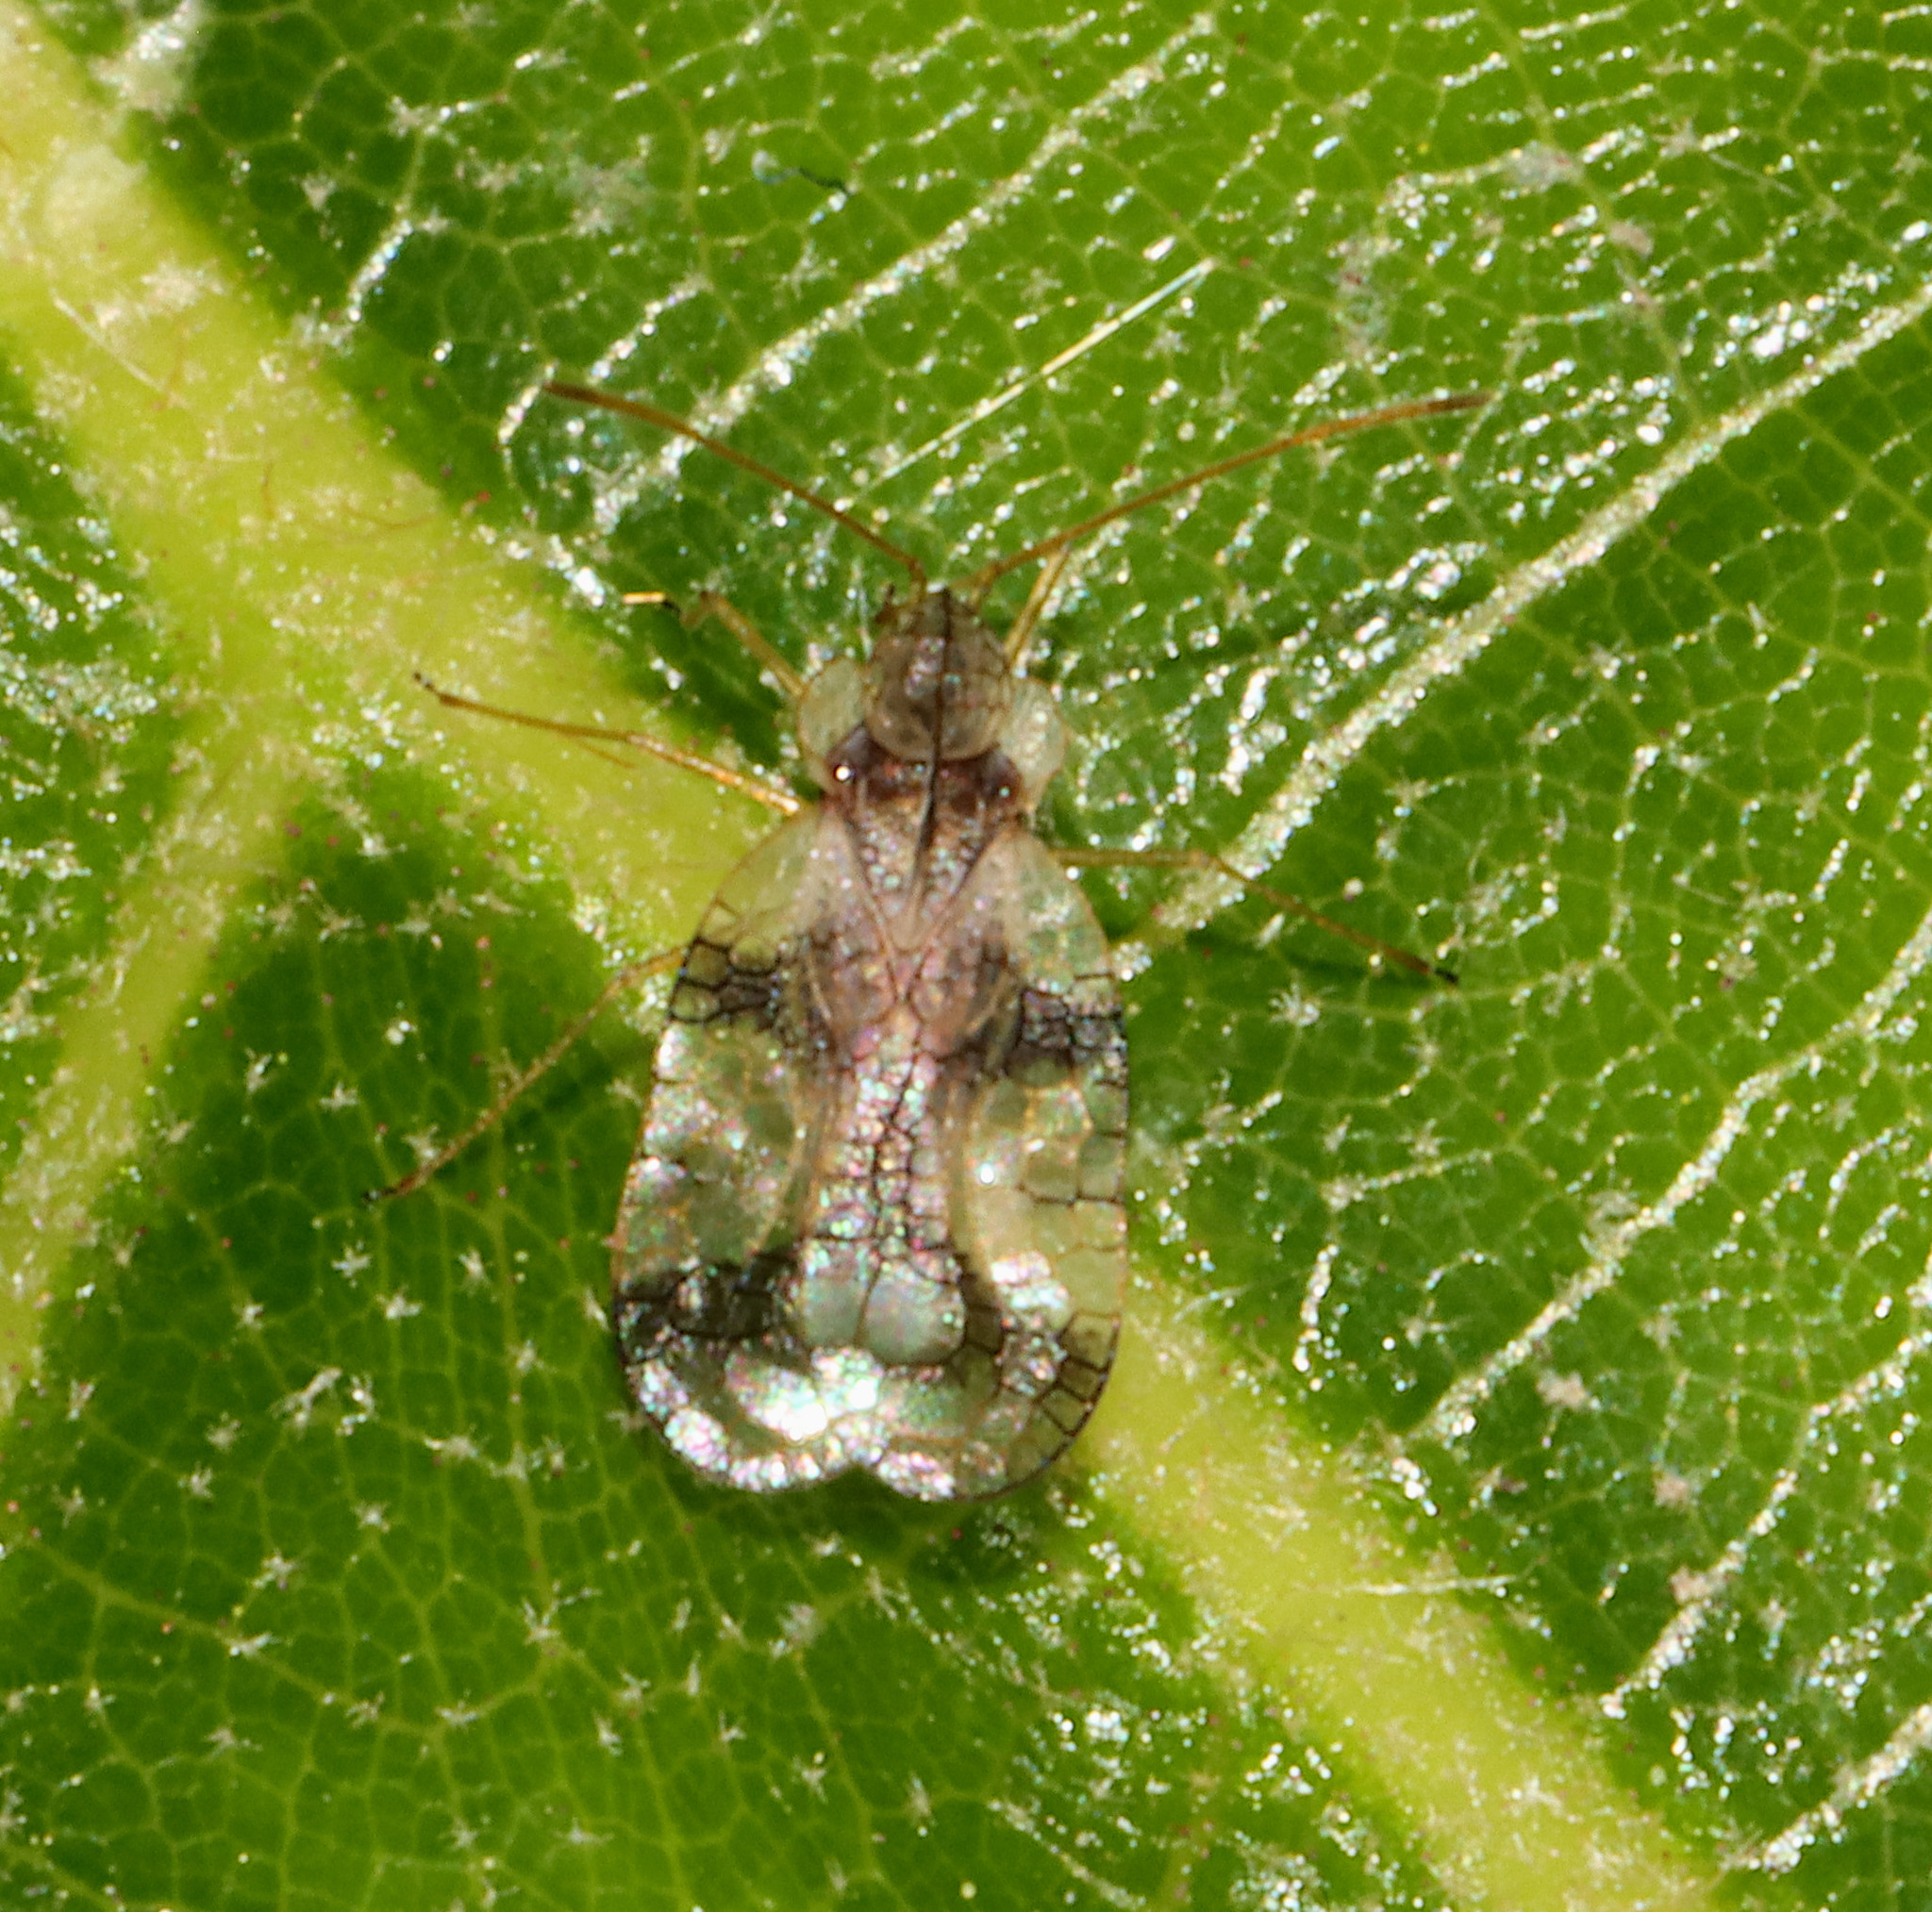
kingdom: Animalia
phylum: Arthropoda
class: Insecta
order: Hemiptera
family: Tingidae
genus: Stephanitis
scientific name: Stephanitis pyrioides
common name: Azalea lace bug
